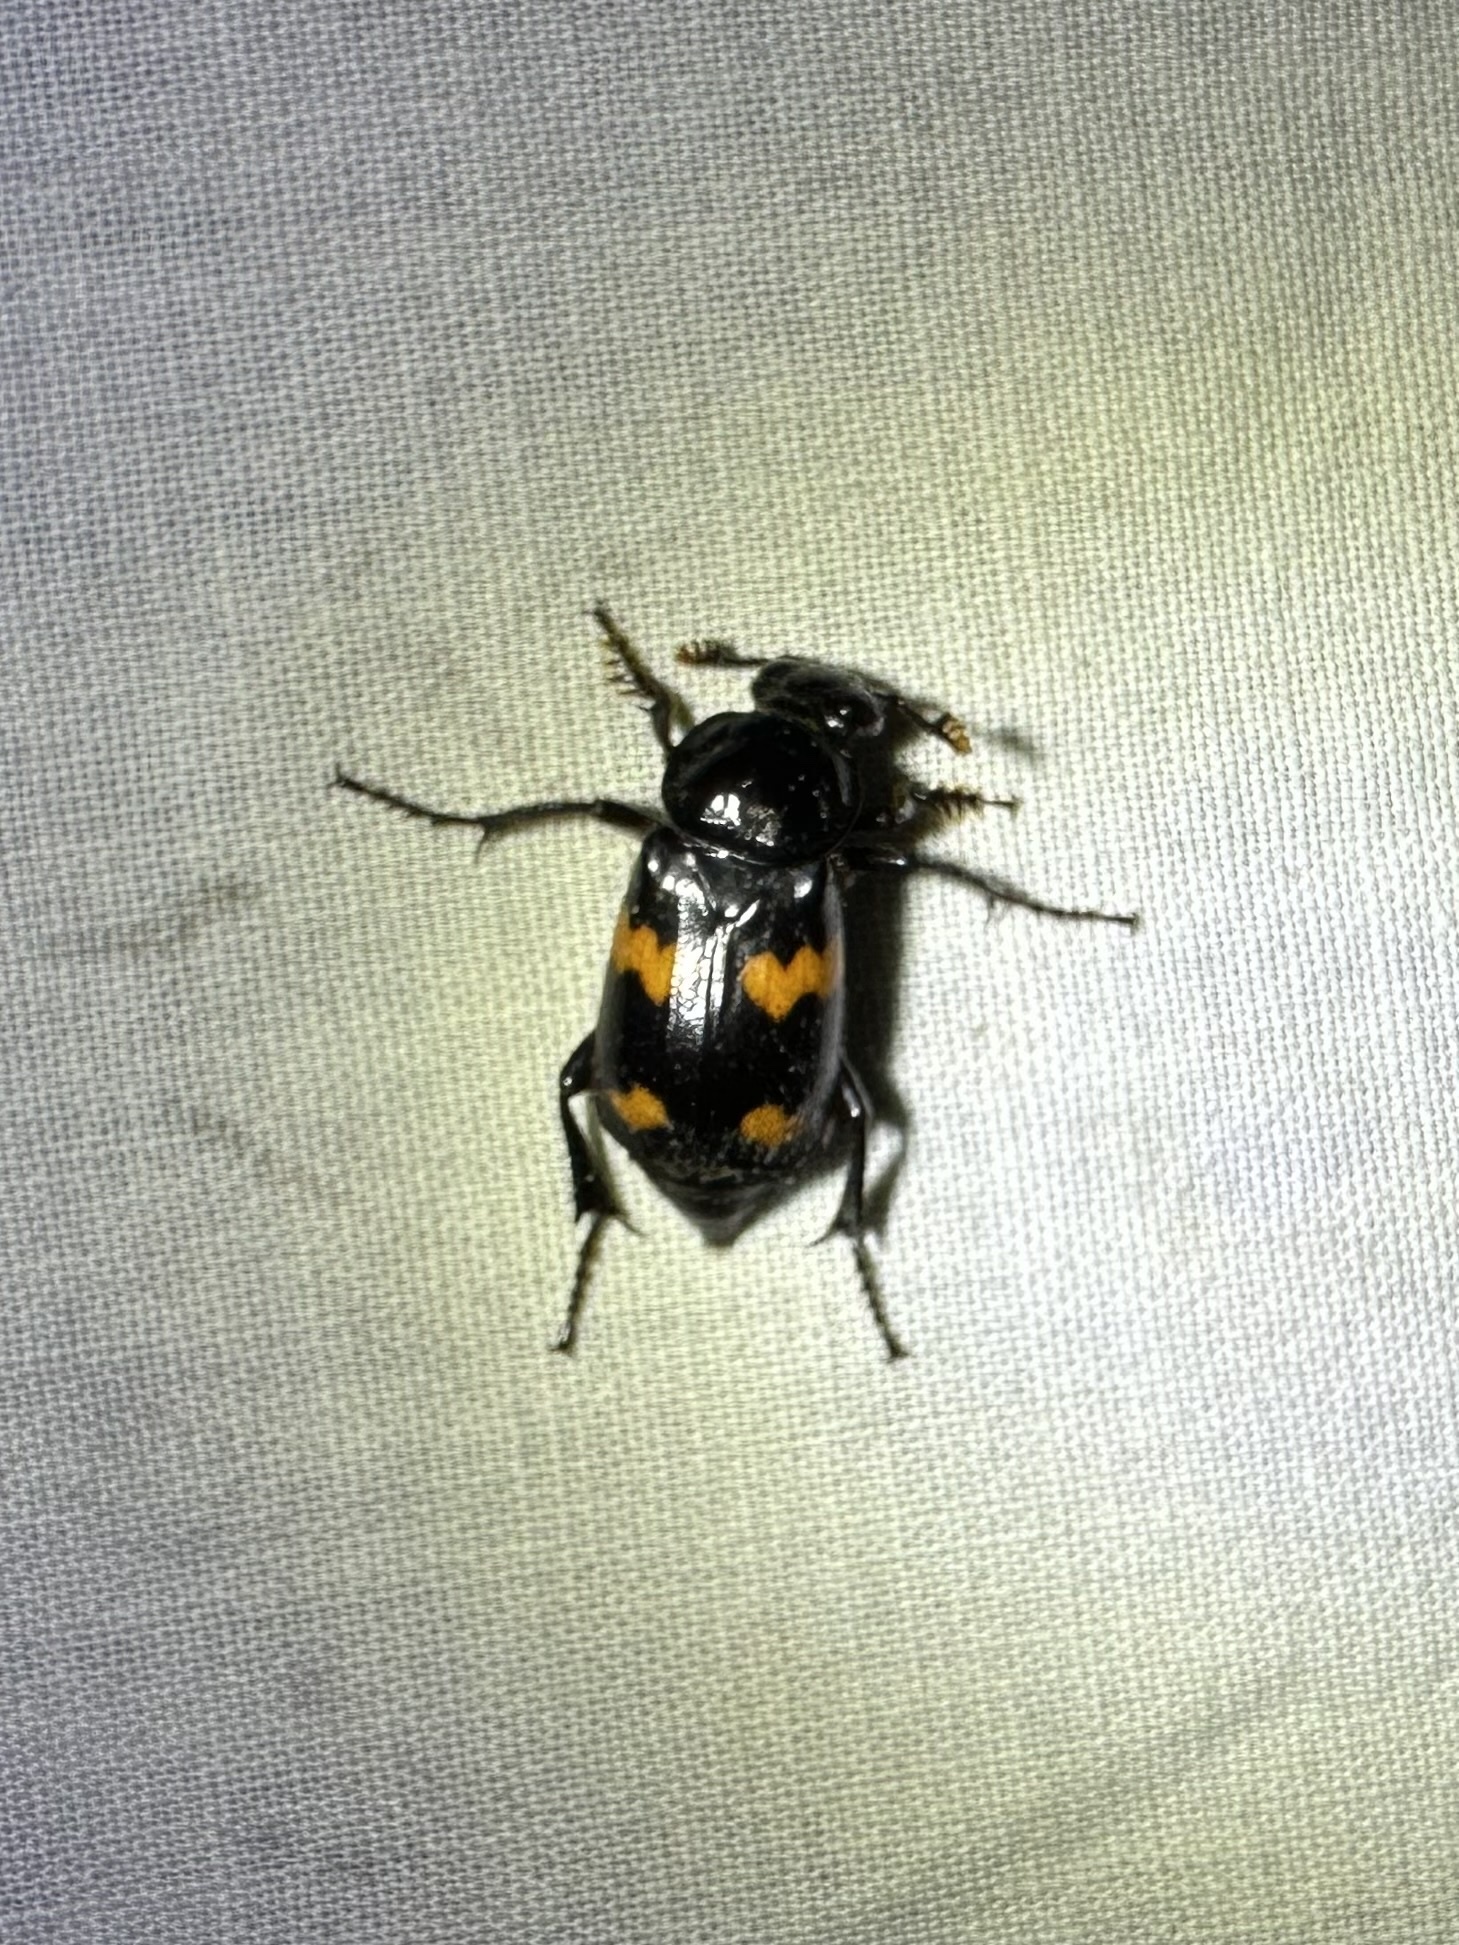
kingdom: Animalia
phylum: Arthropoda
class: Insecta
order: Coleoptera
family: Staphylinidae
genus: Nicrophorus
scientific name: Nicrophorus orbicollis
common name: Roundneck sexton beetle
